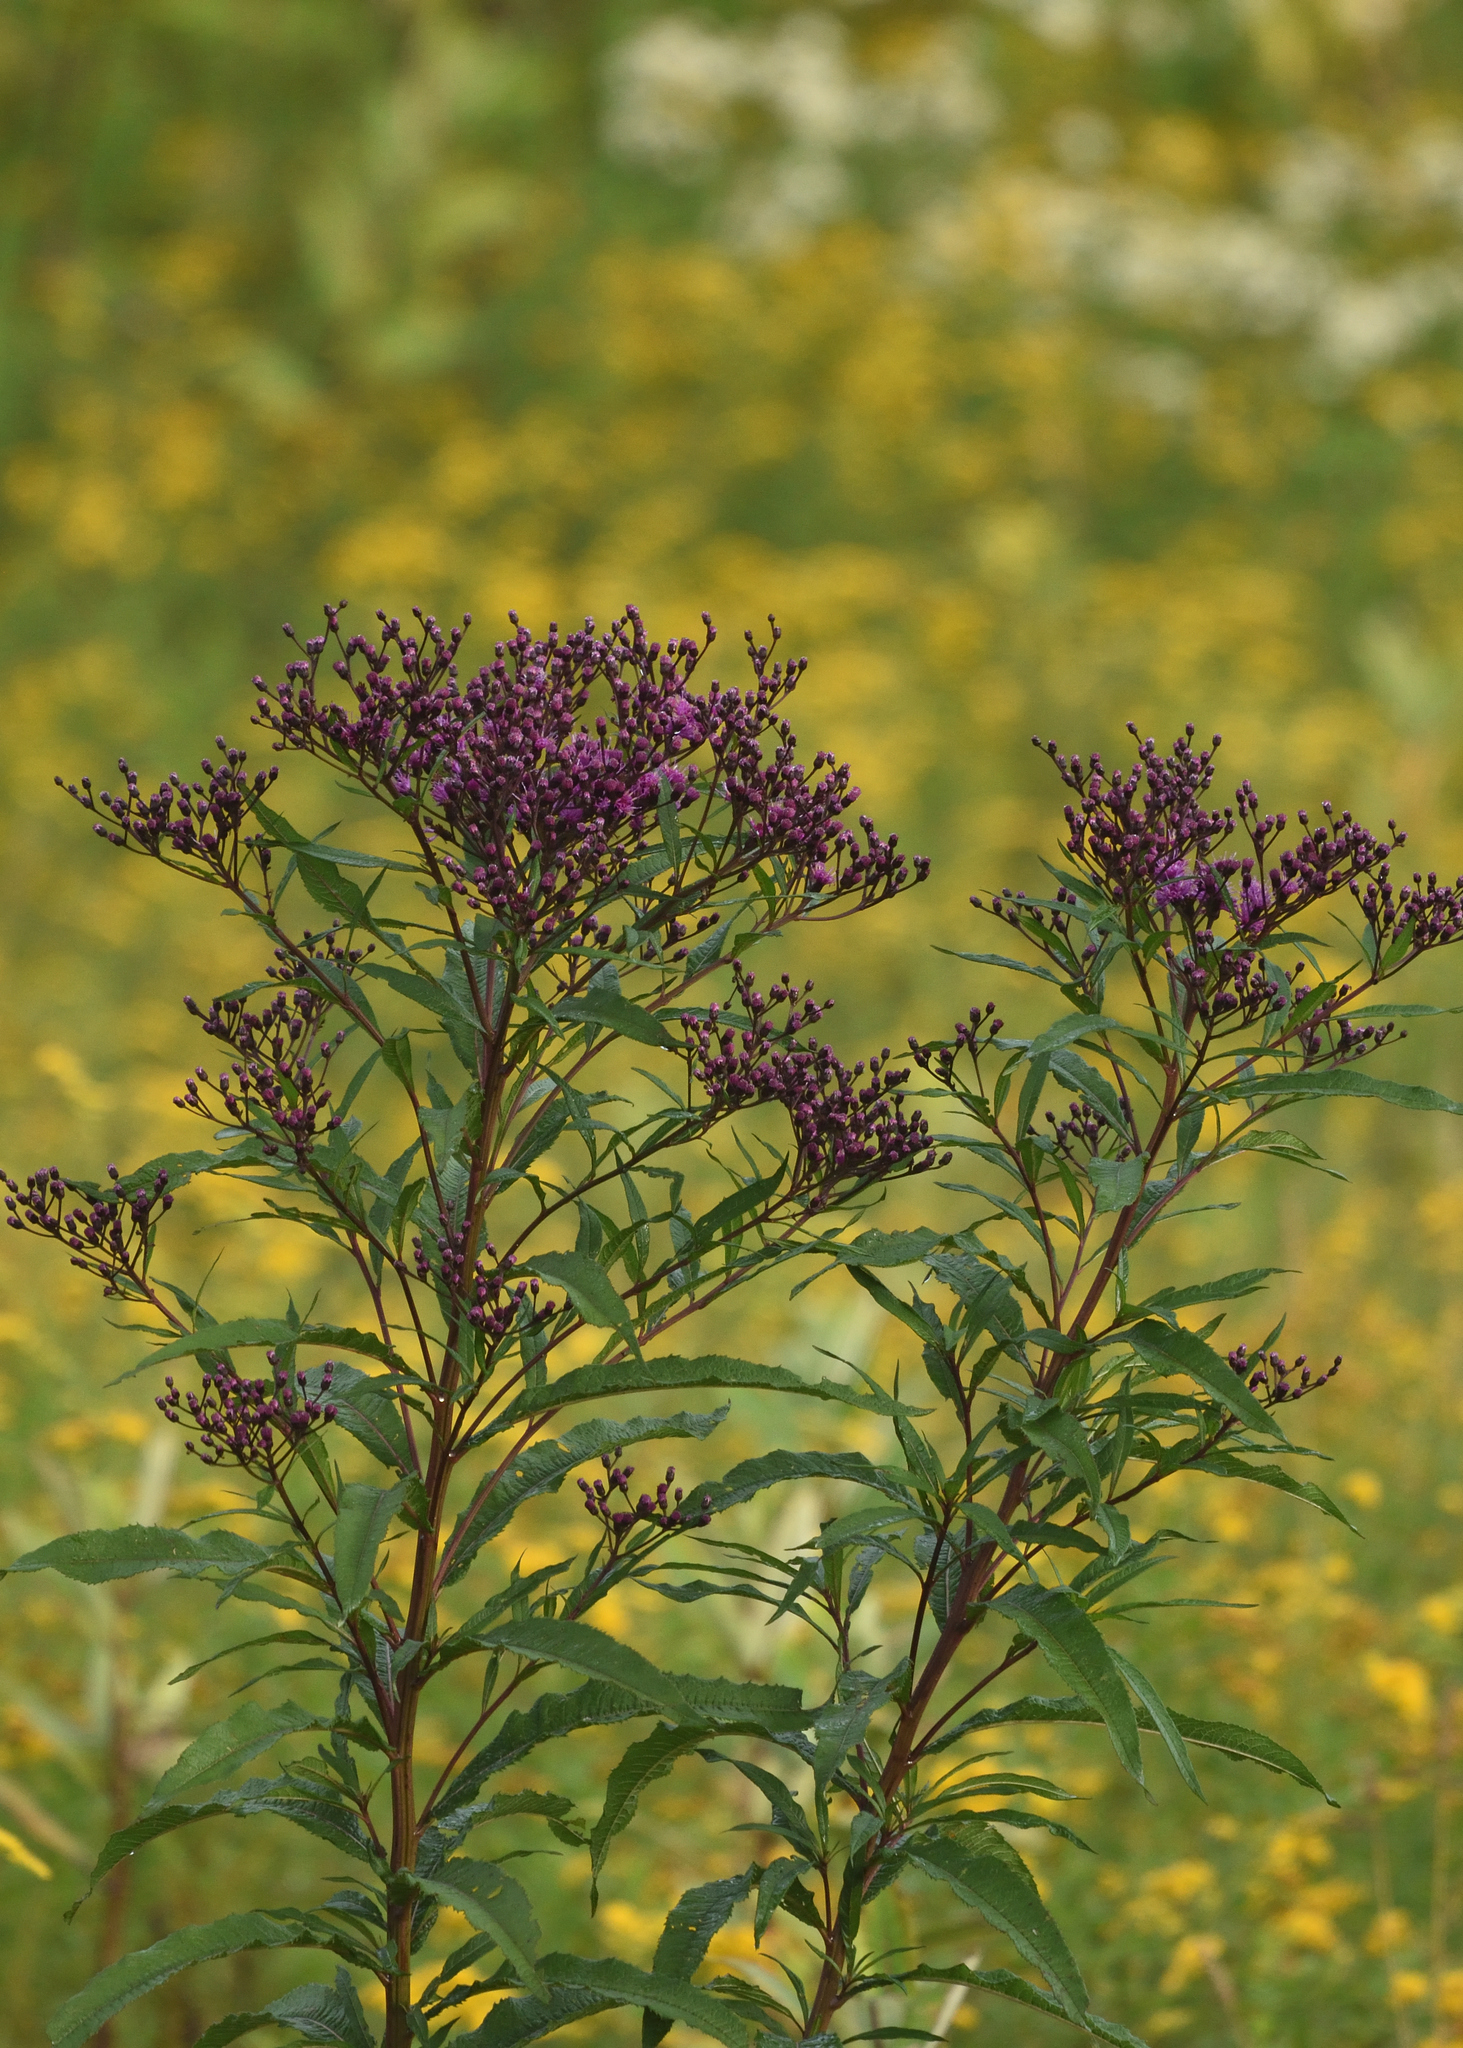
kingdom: Plantae
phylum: Tracheophyta
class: Magnoliopsida
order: Asterales
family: Asteraceae
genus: Vernonia
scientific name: Vernonia gigantea
